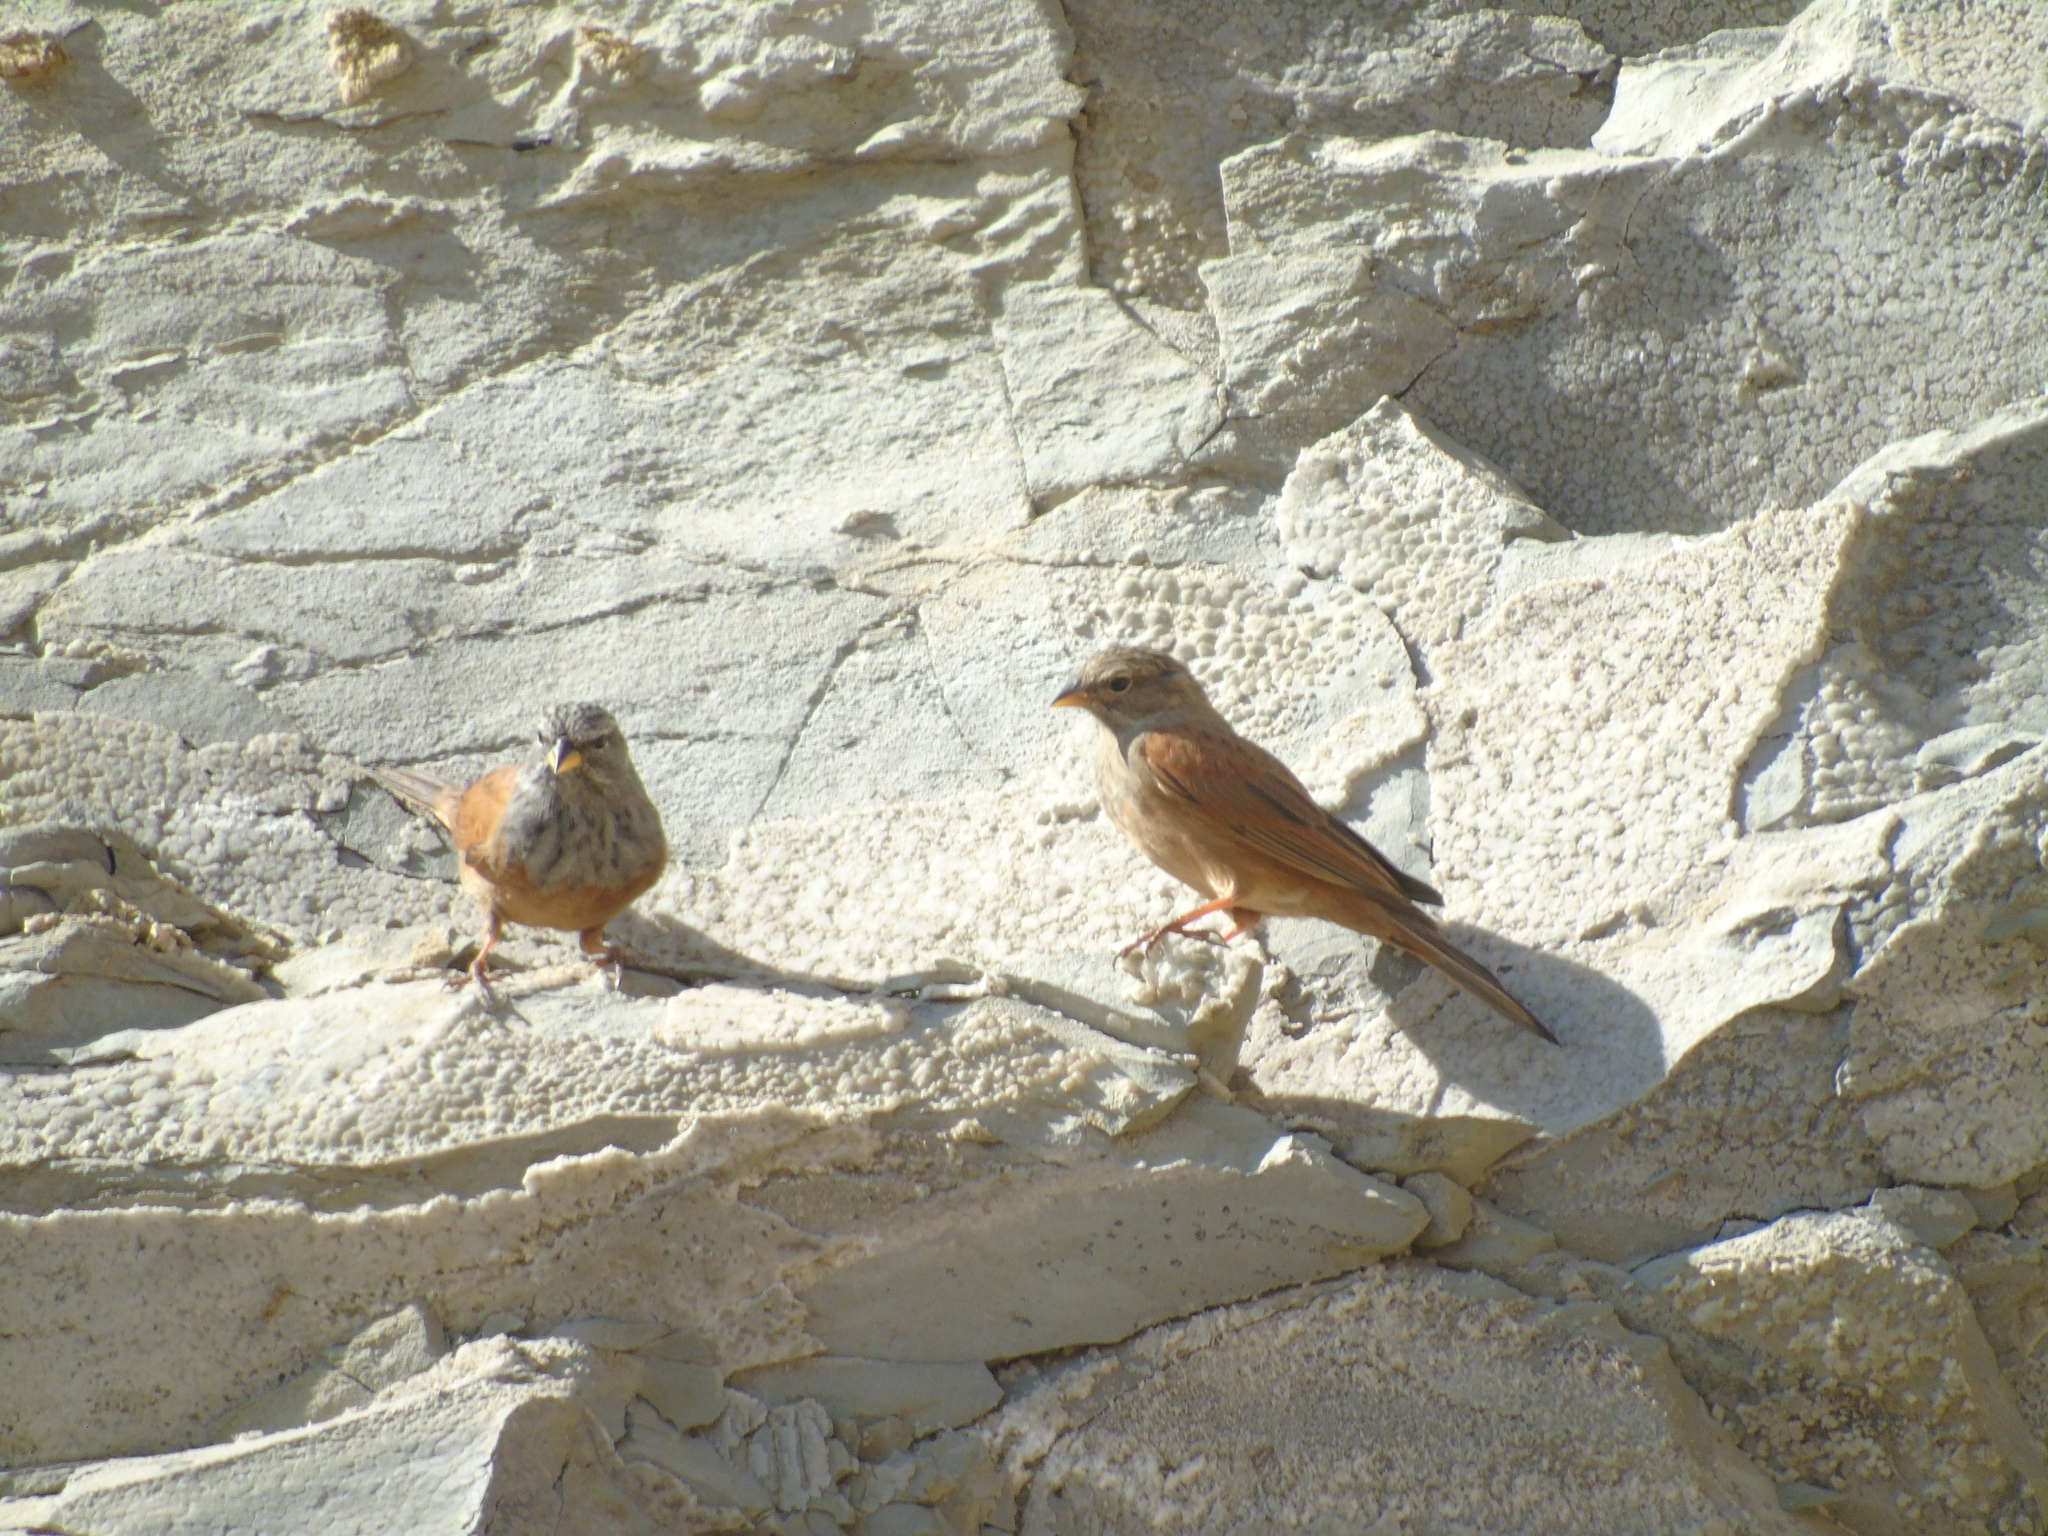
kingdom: Animalia
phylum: Chordata
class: Aves
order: Passeriformes
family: Emberizidae
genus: Emberiza
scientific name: Emberiza sahari
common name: House bunting
